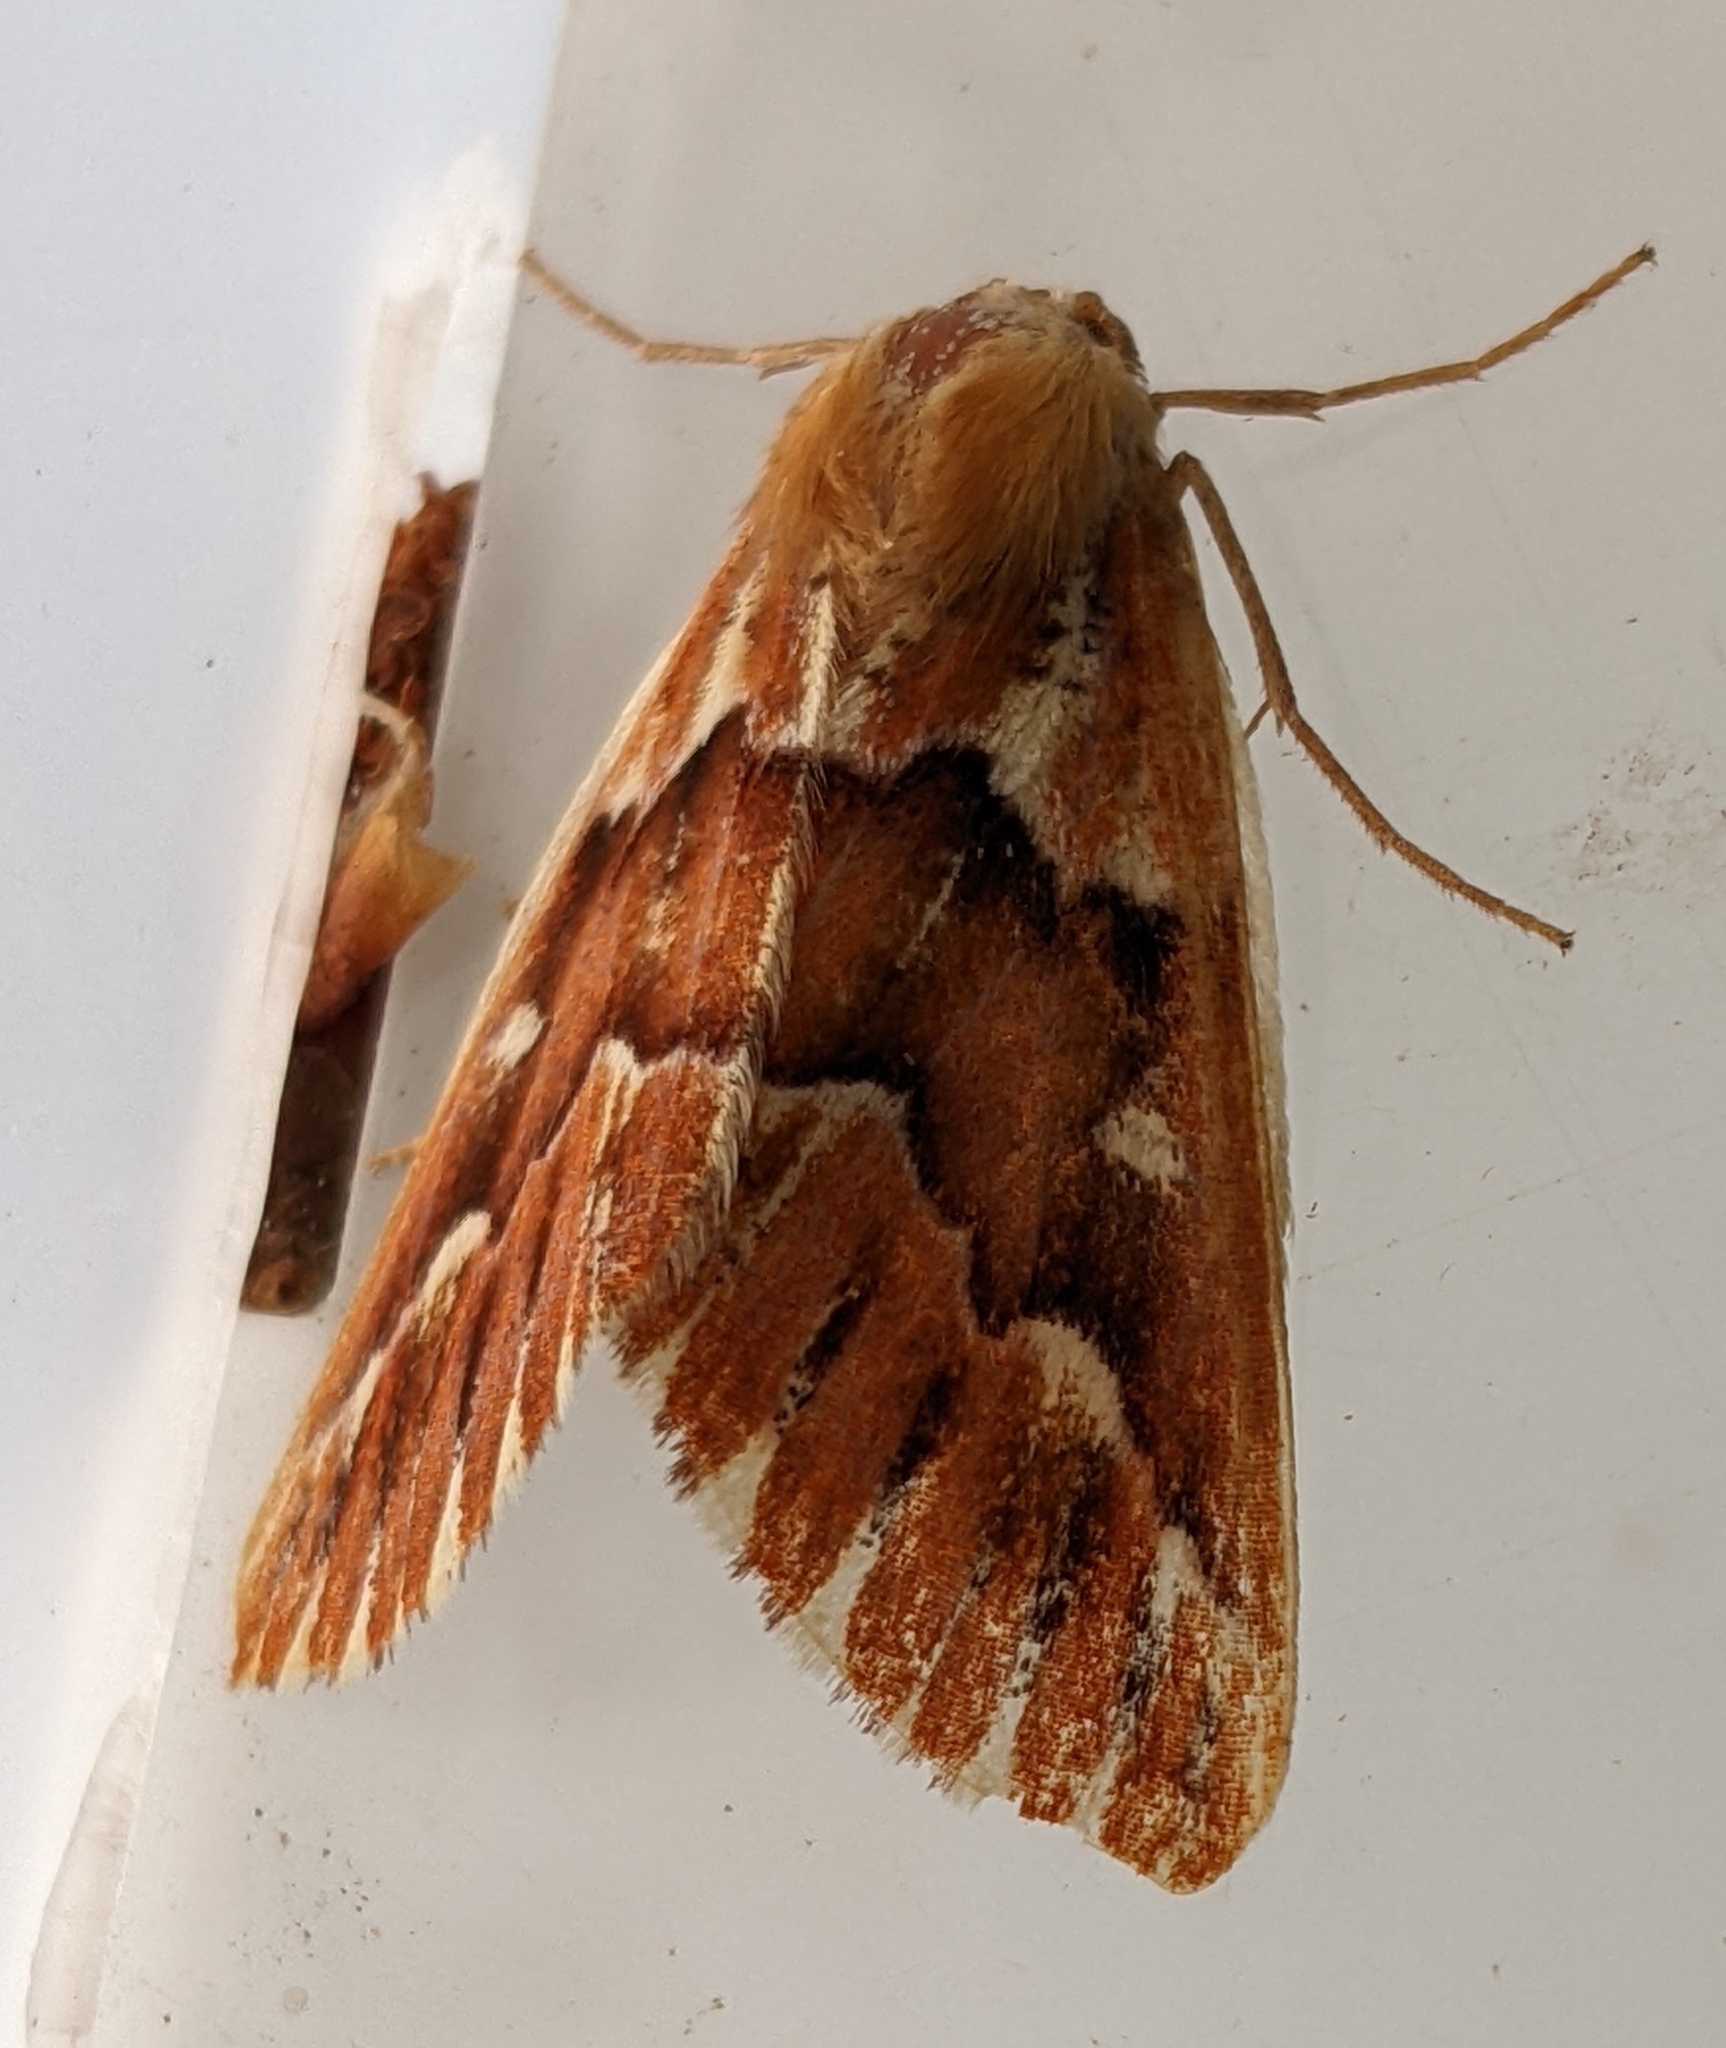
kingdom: Animalia
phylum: Arthropoda
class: Insecta
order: Lepidoptera
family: Geometridae
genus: Caripeta
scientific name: Caripeta aequaliaria
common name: Red girdle moth
